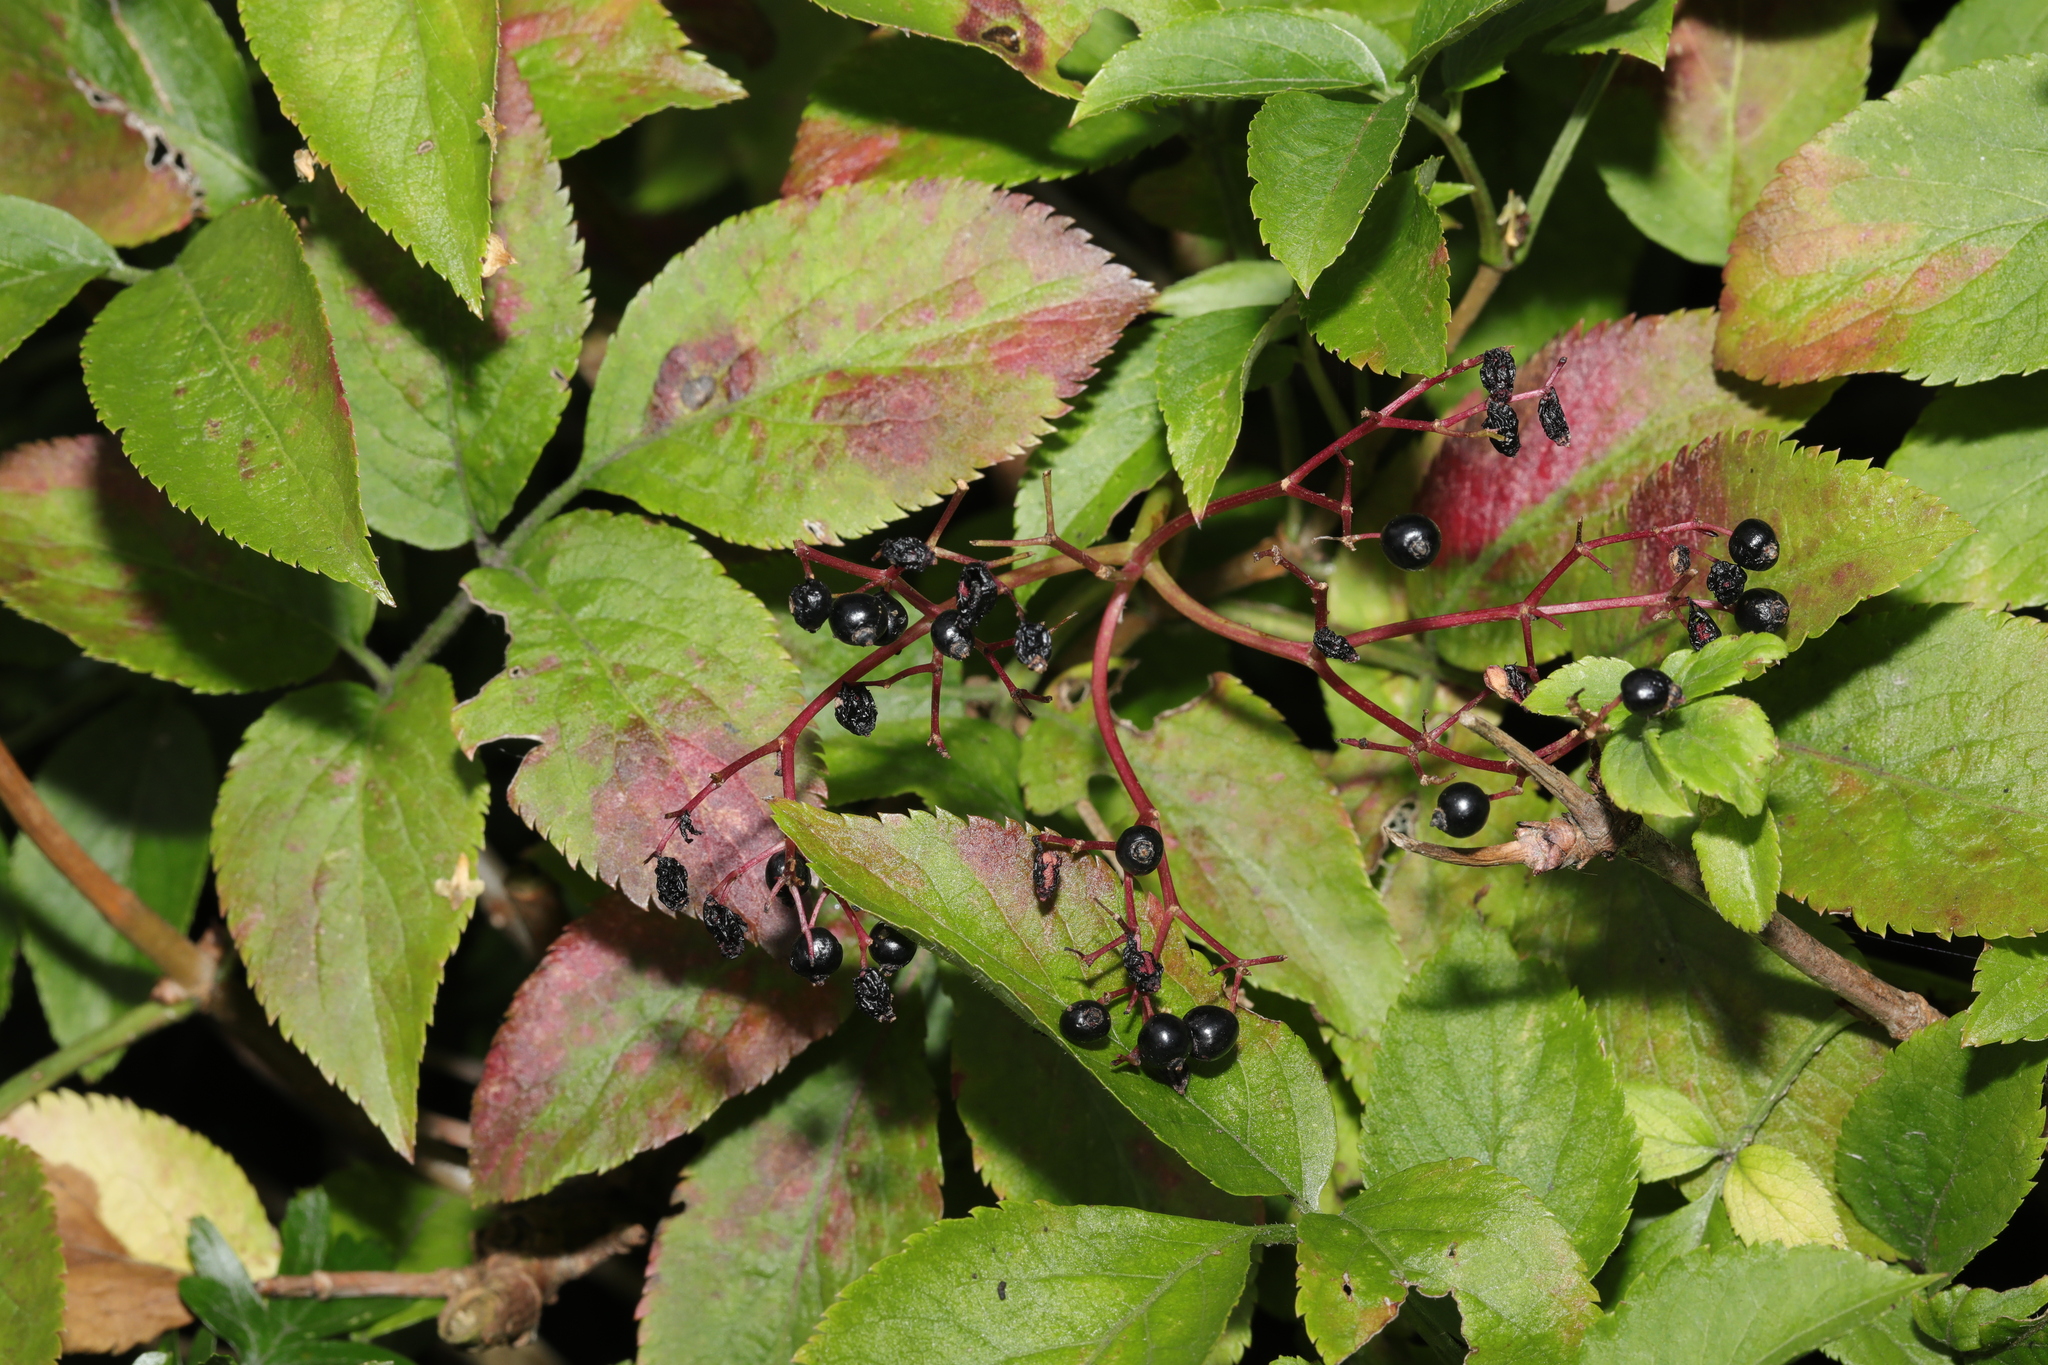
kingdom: Plantae
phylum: Tracheophyta
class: Magnoliopsida
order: Dipsacales
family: Viburnaceae
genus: Sambucus
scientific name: Sambucus nigra
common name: Elder
